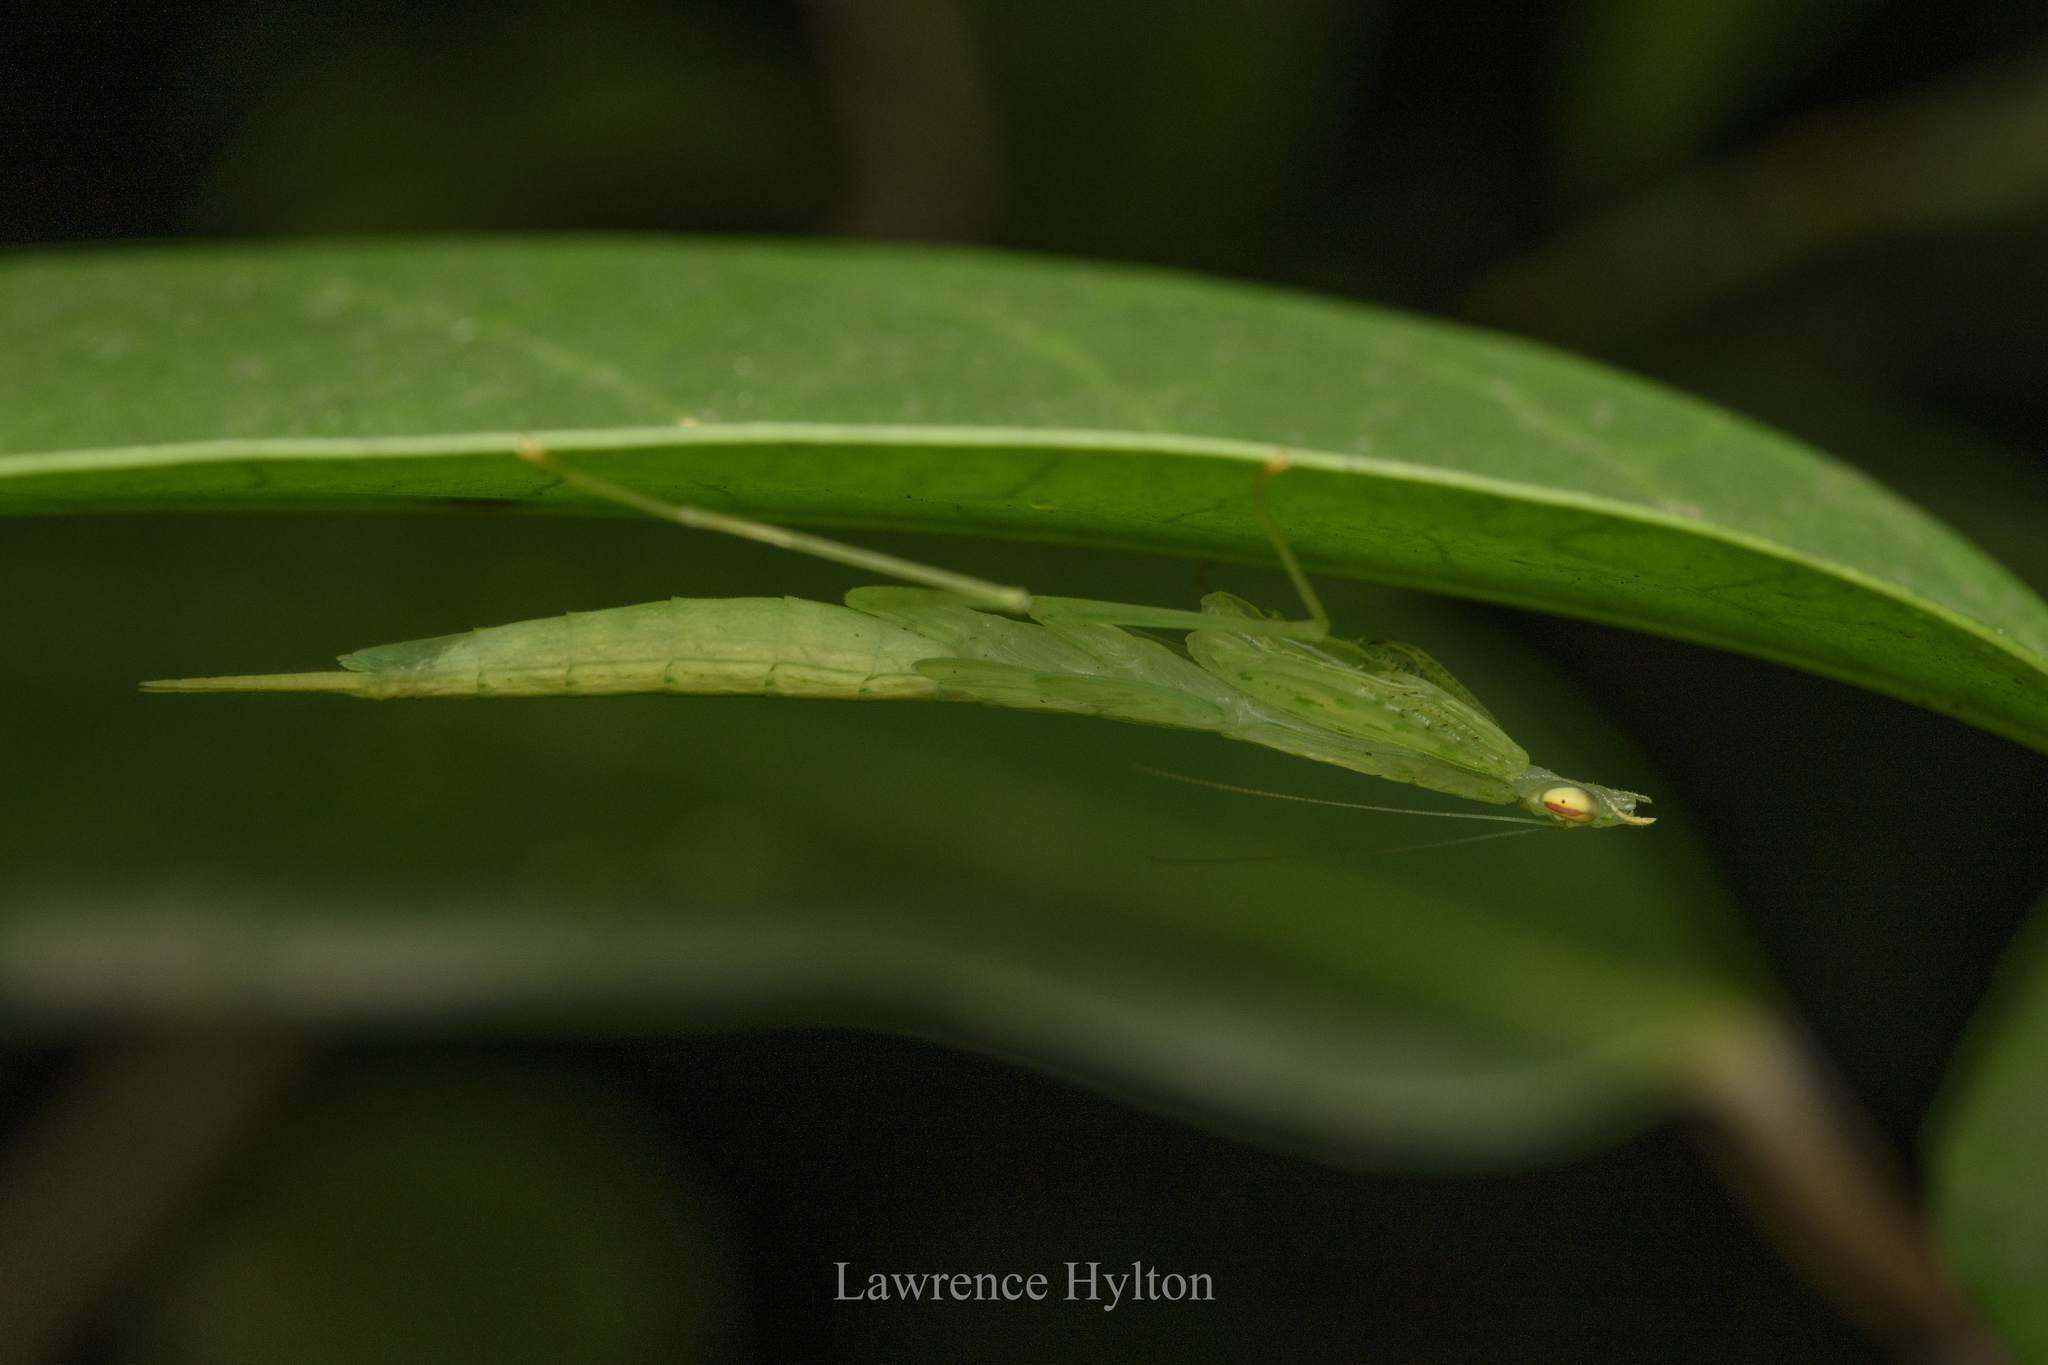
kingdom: Animalia
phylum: Arthropoda
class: Insecta
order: Mantodea
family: Nanomantidae
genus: Sinomantis
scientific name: Sinomantis denticulata
